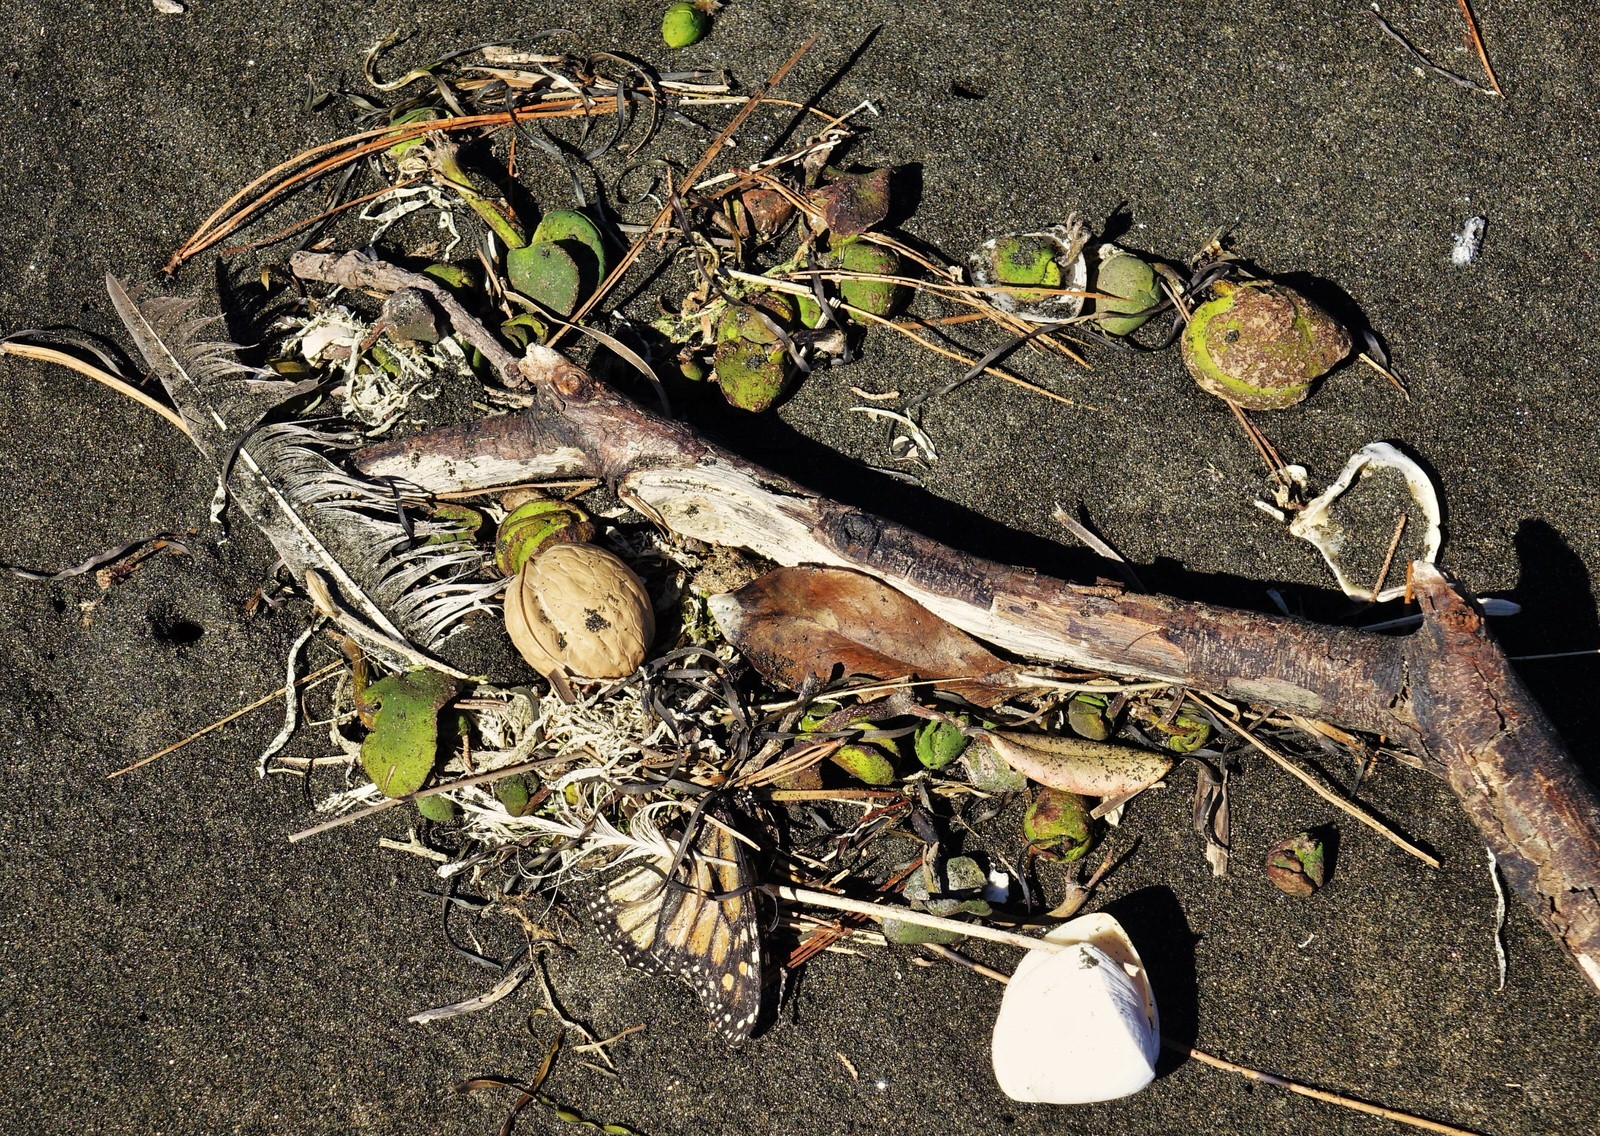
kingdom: Plantae
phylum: Tracheophyta
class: Magnoliopsida
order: Fagales
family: Juglandaceae
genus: Juglans
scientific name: Juglans regia
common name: Walnut
